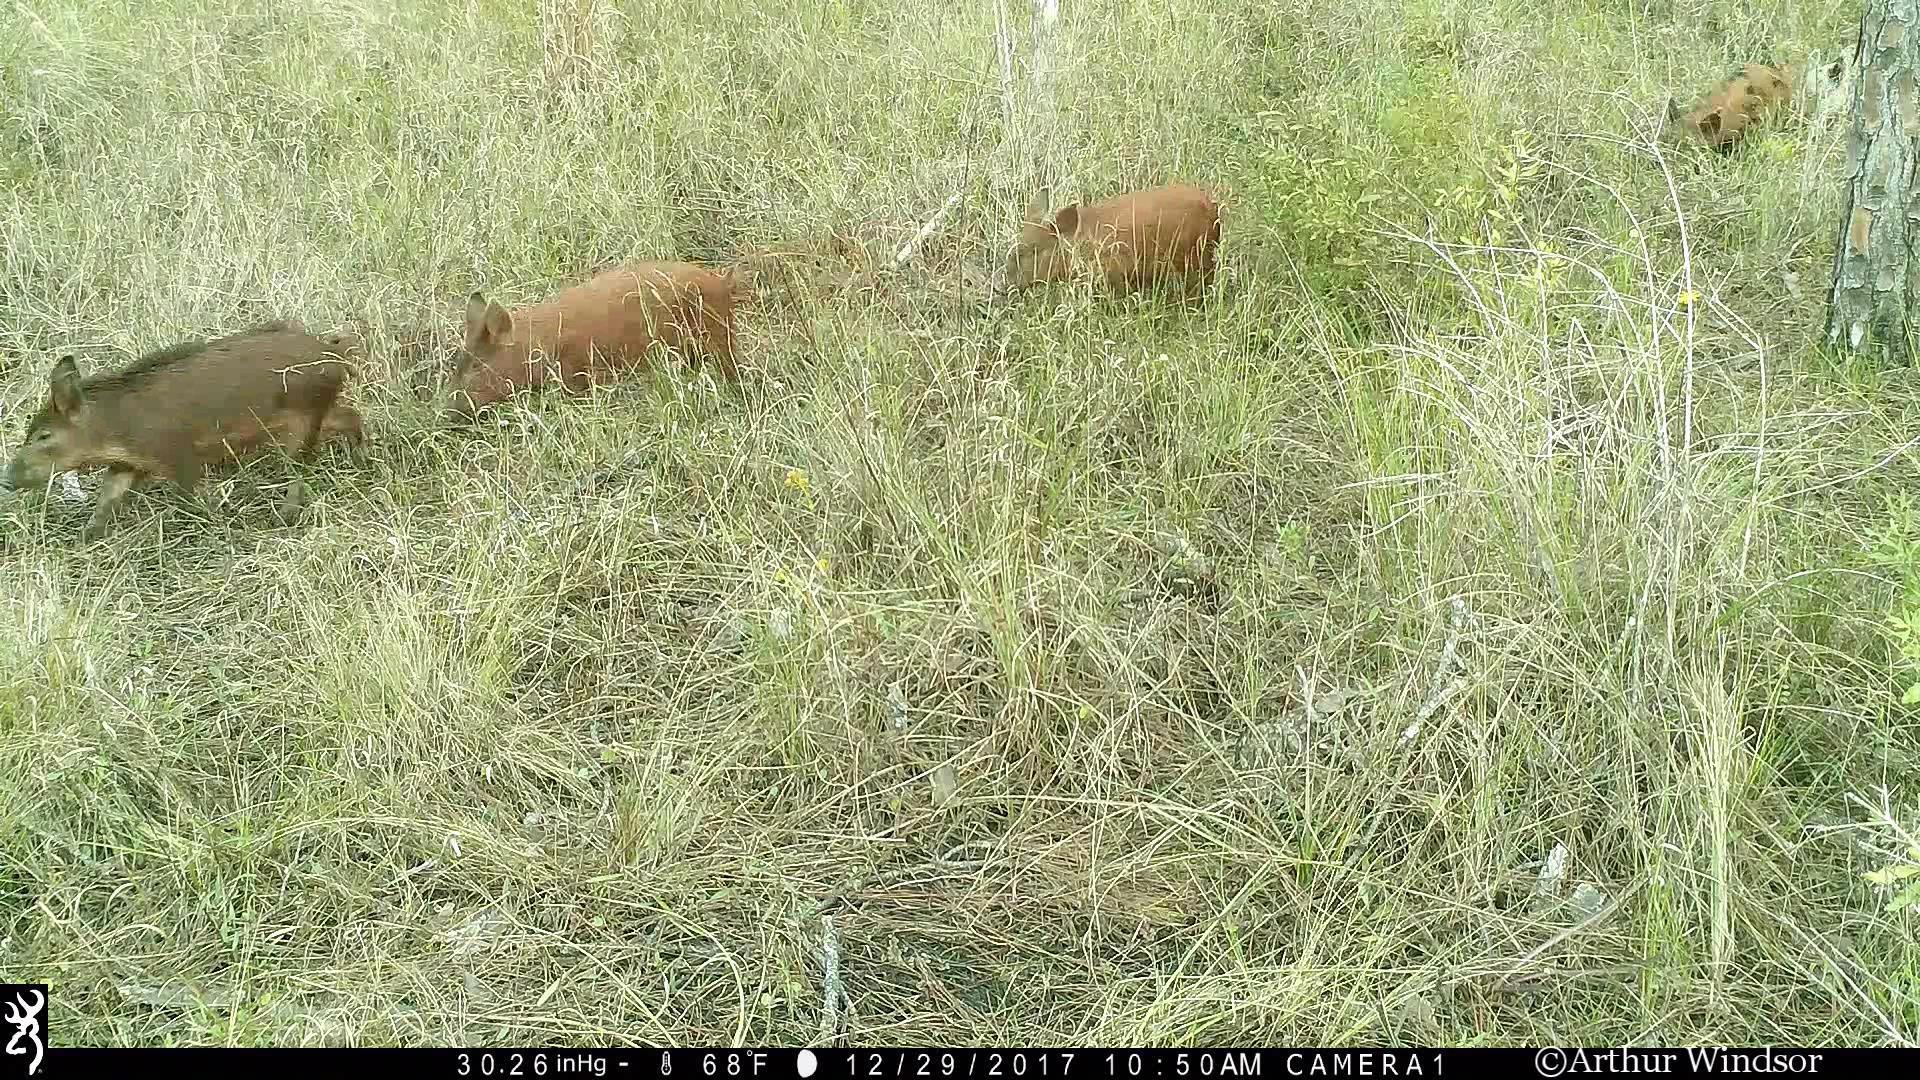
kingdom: Animalia
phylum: Chordata
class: Mammalia
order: Artiodactyla
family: Suidae
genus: Sus
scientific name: Sus scrofa
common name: Wild boar
